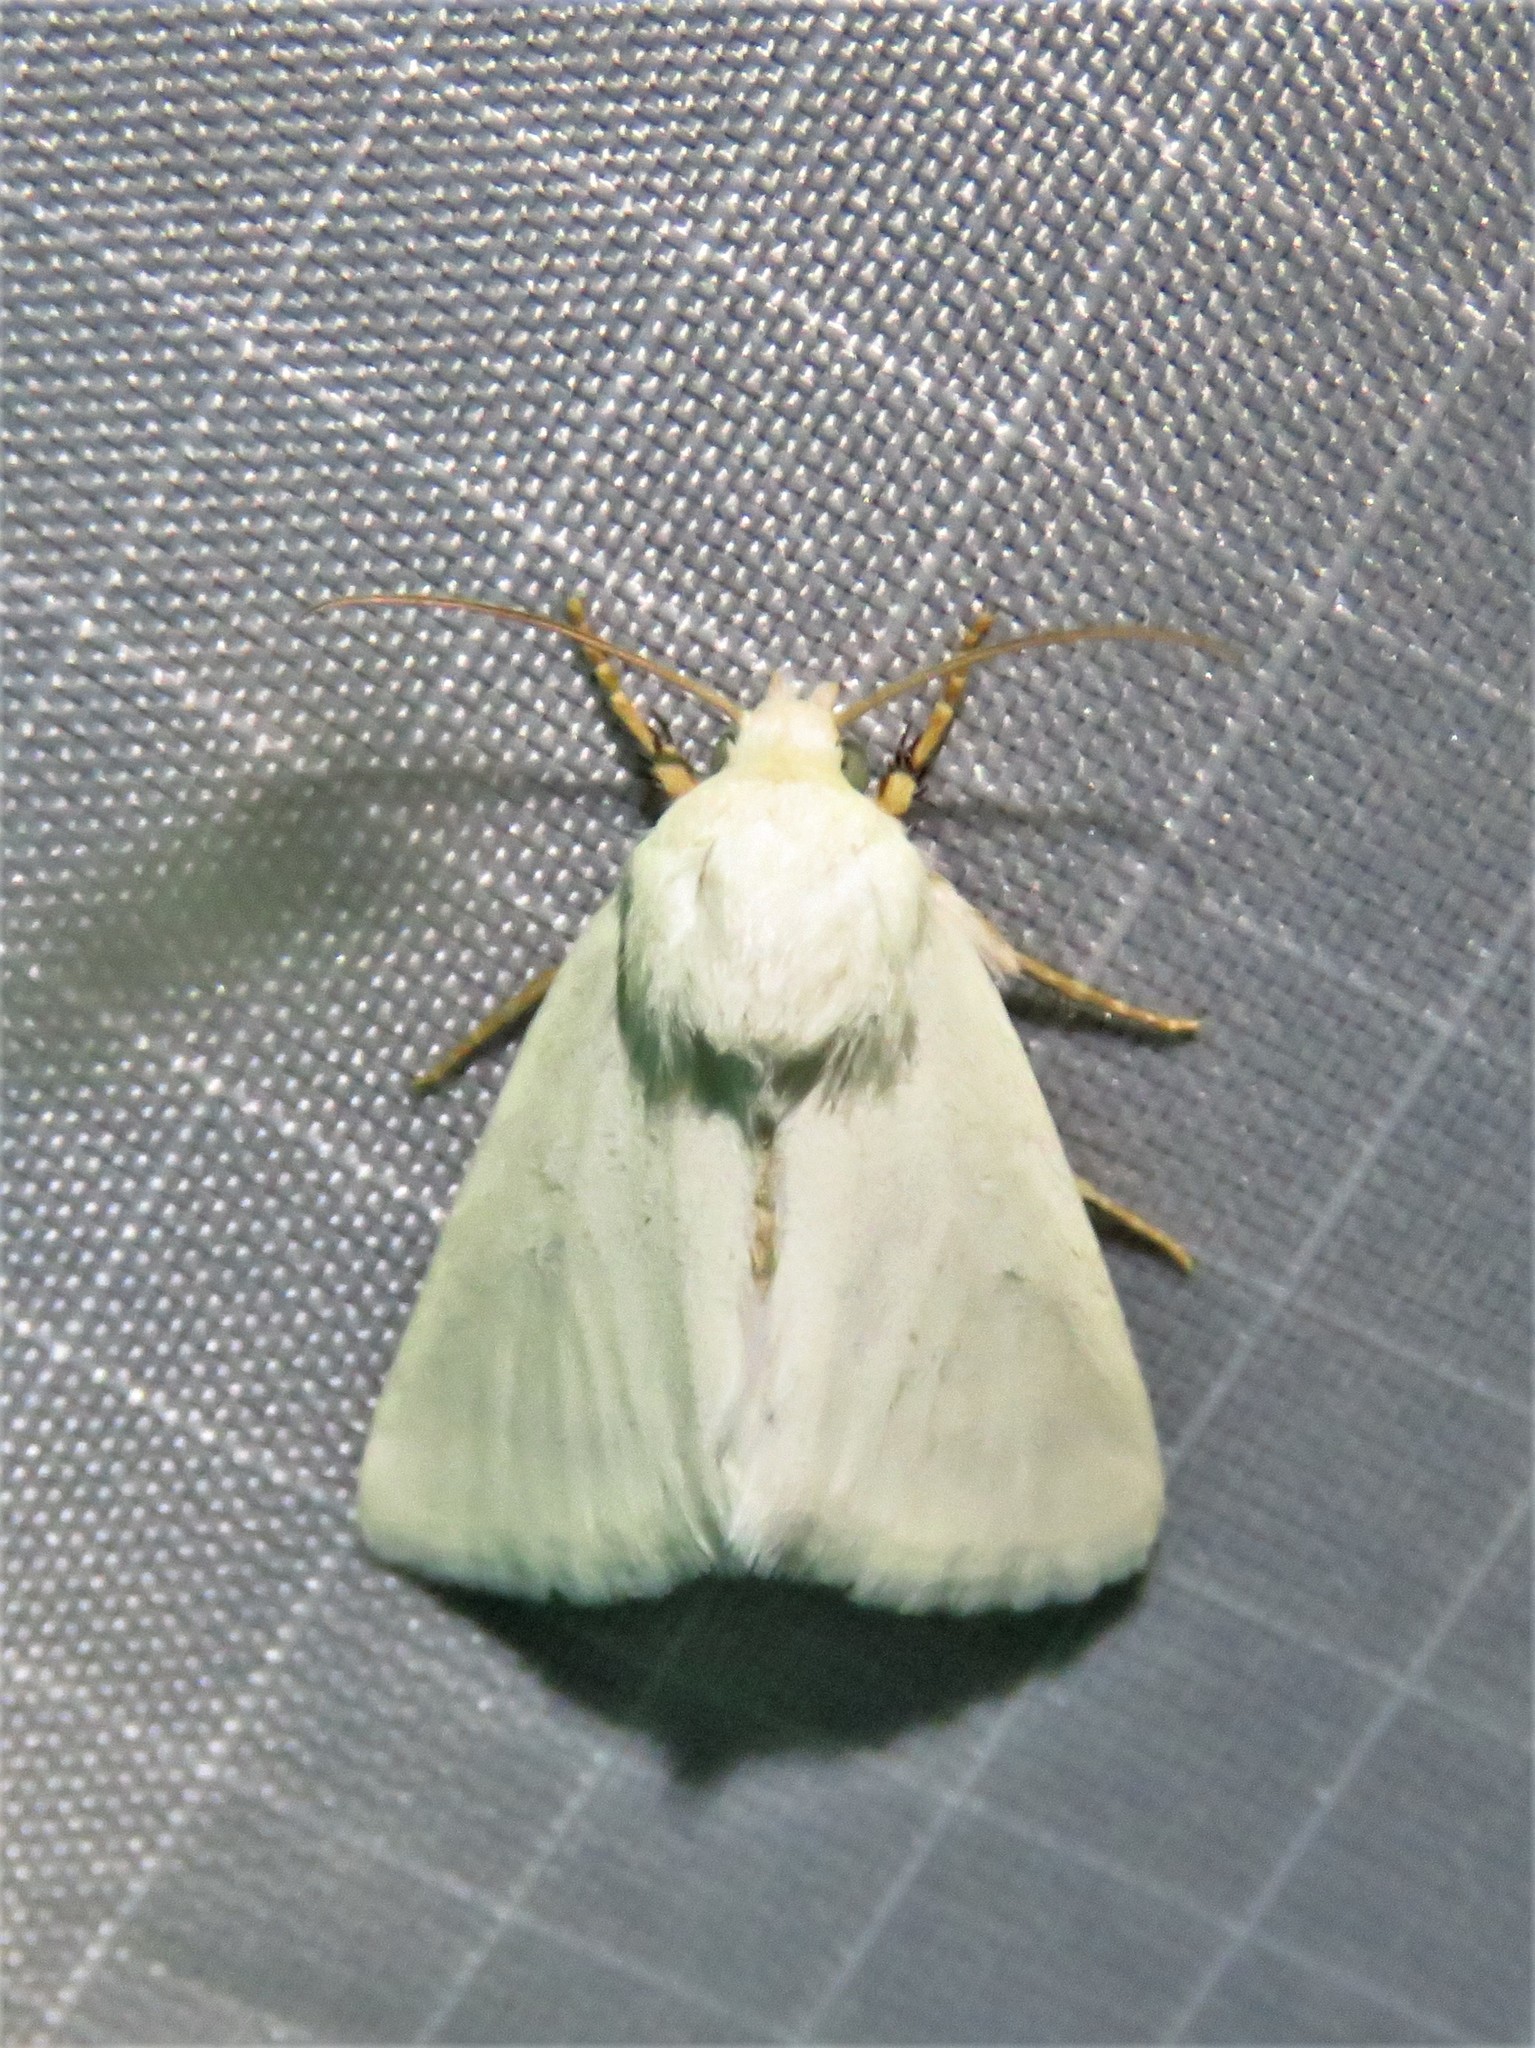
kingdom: Animalia
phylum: Arthropoda
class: Insecta
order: Lepidoptera
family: Noctuidae
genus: Schinia
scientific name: Schinia citrinellus
